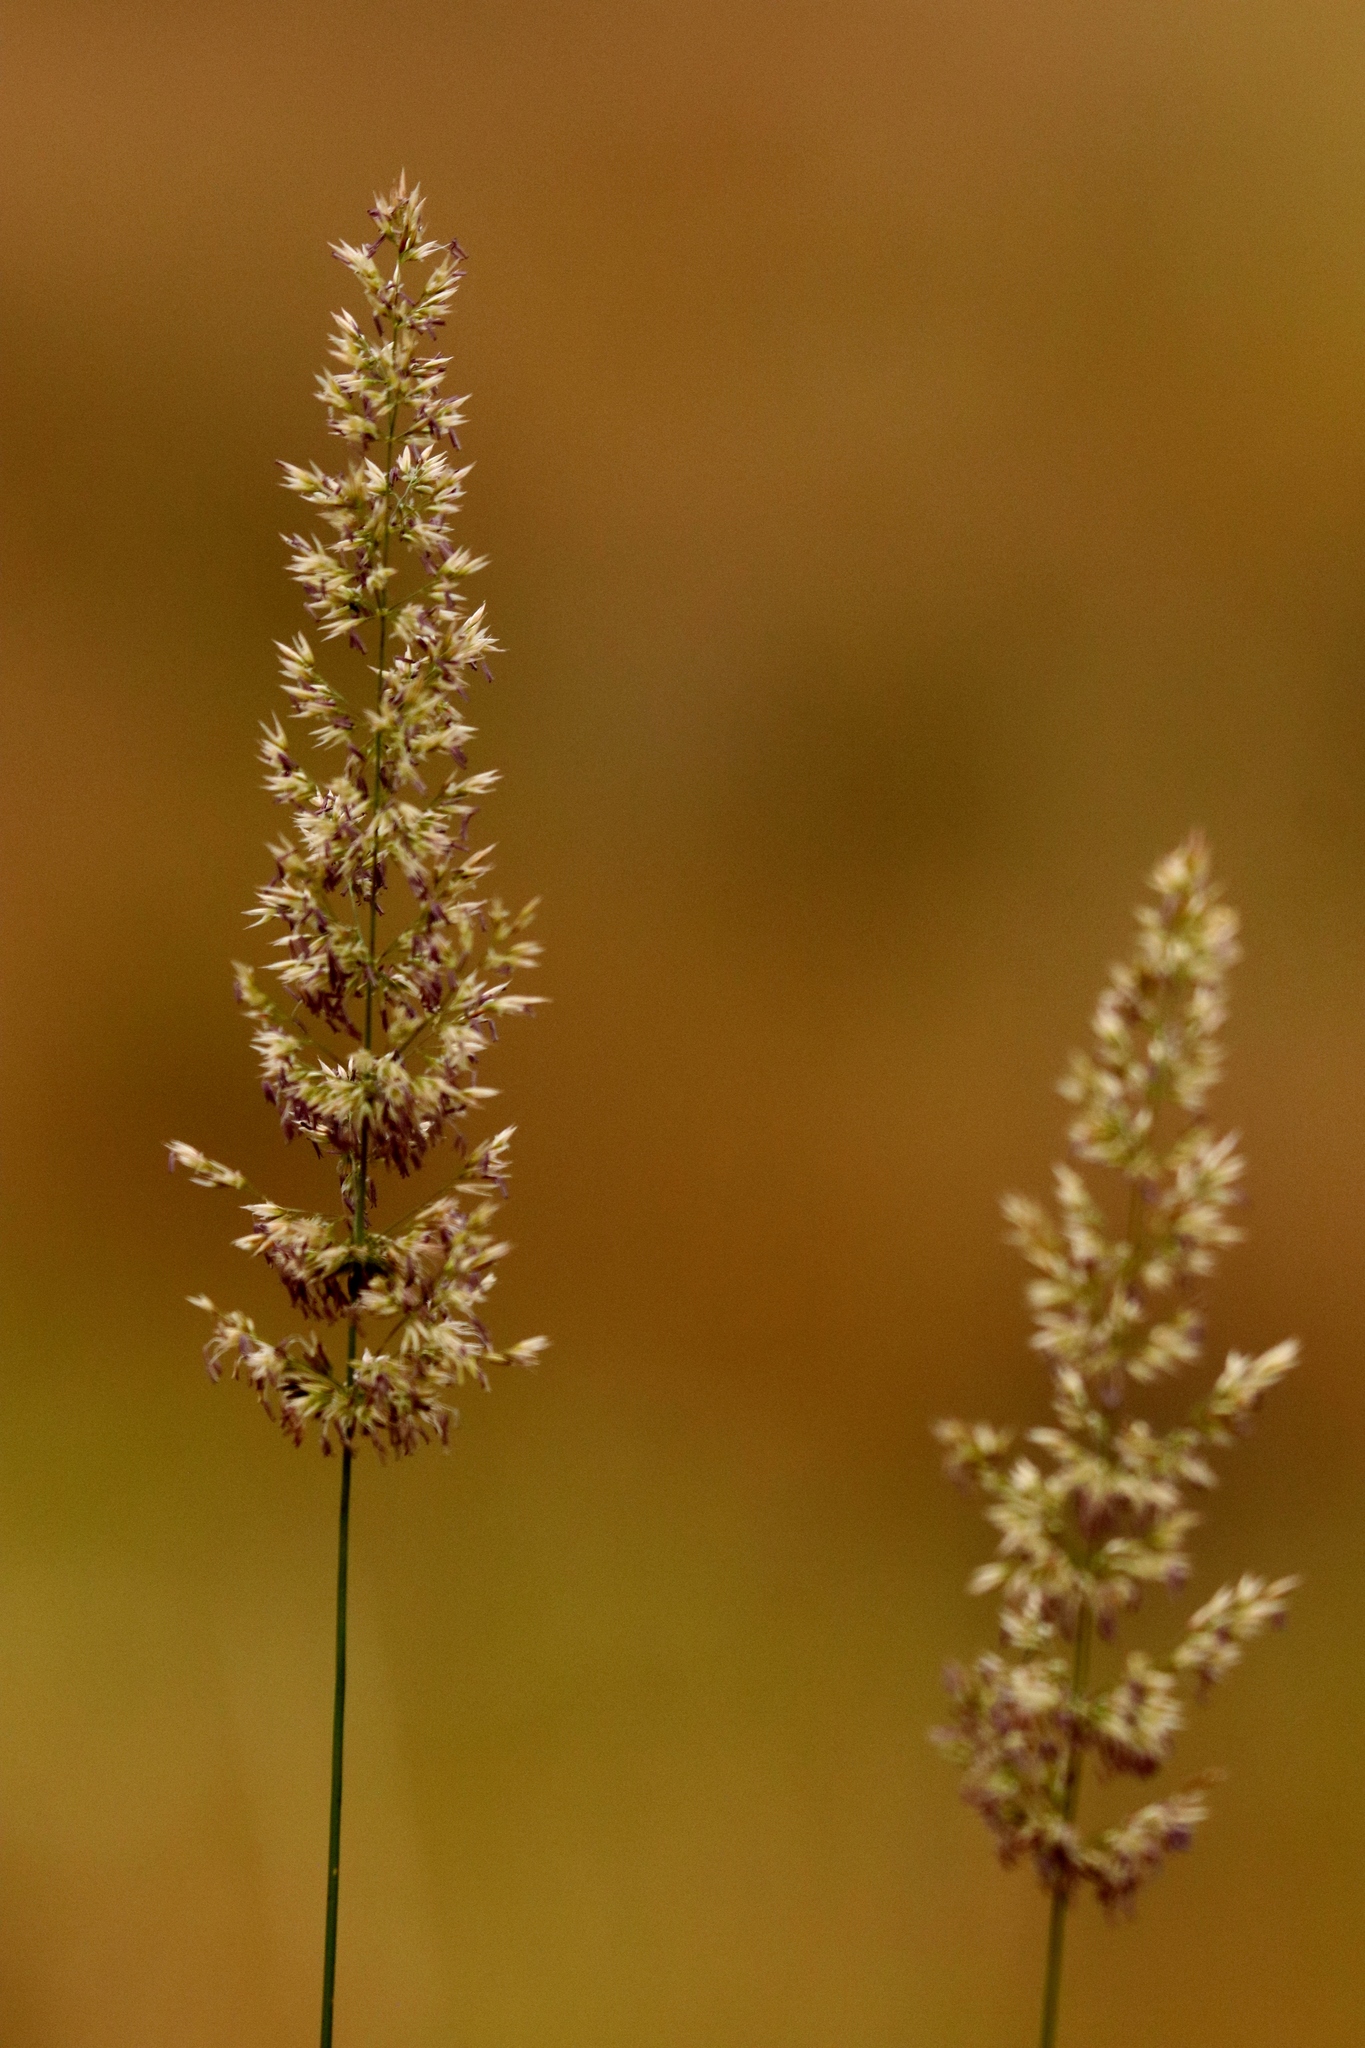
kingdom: Plantae
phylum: Tracheophyta
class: Liliopsida
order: Poales
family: Poaceae
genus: Koeleria
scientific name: Koeleria macrantha
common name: Crested hair-grass
